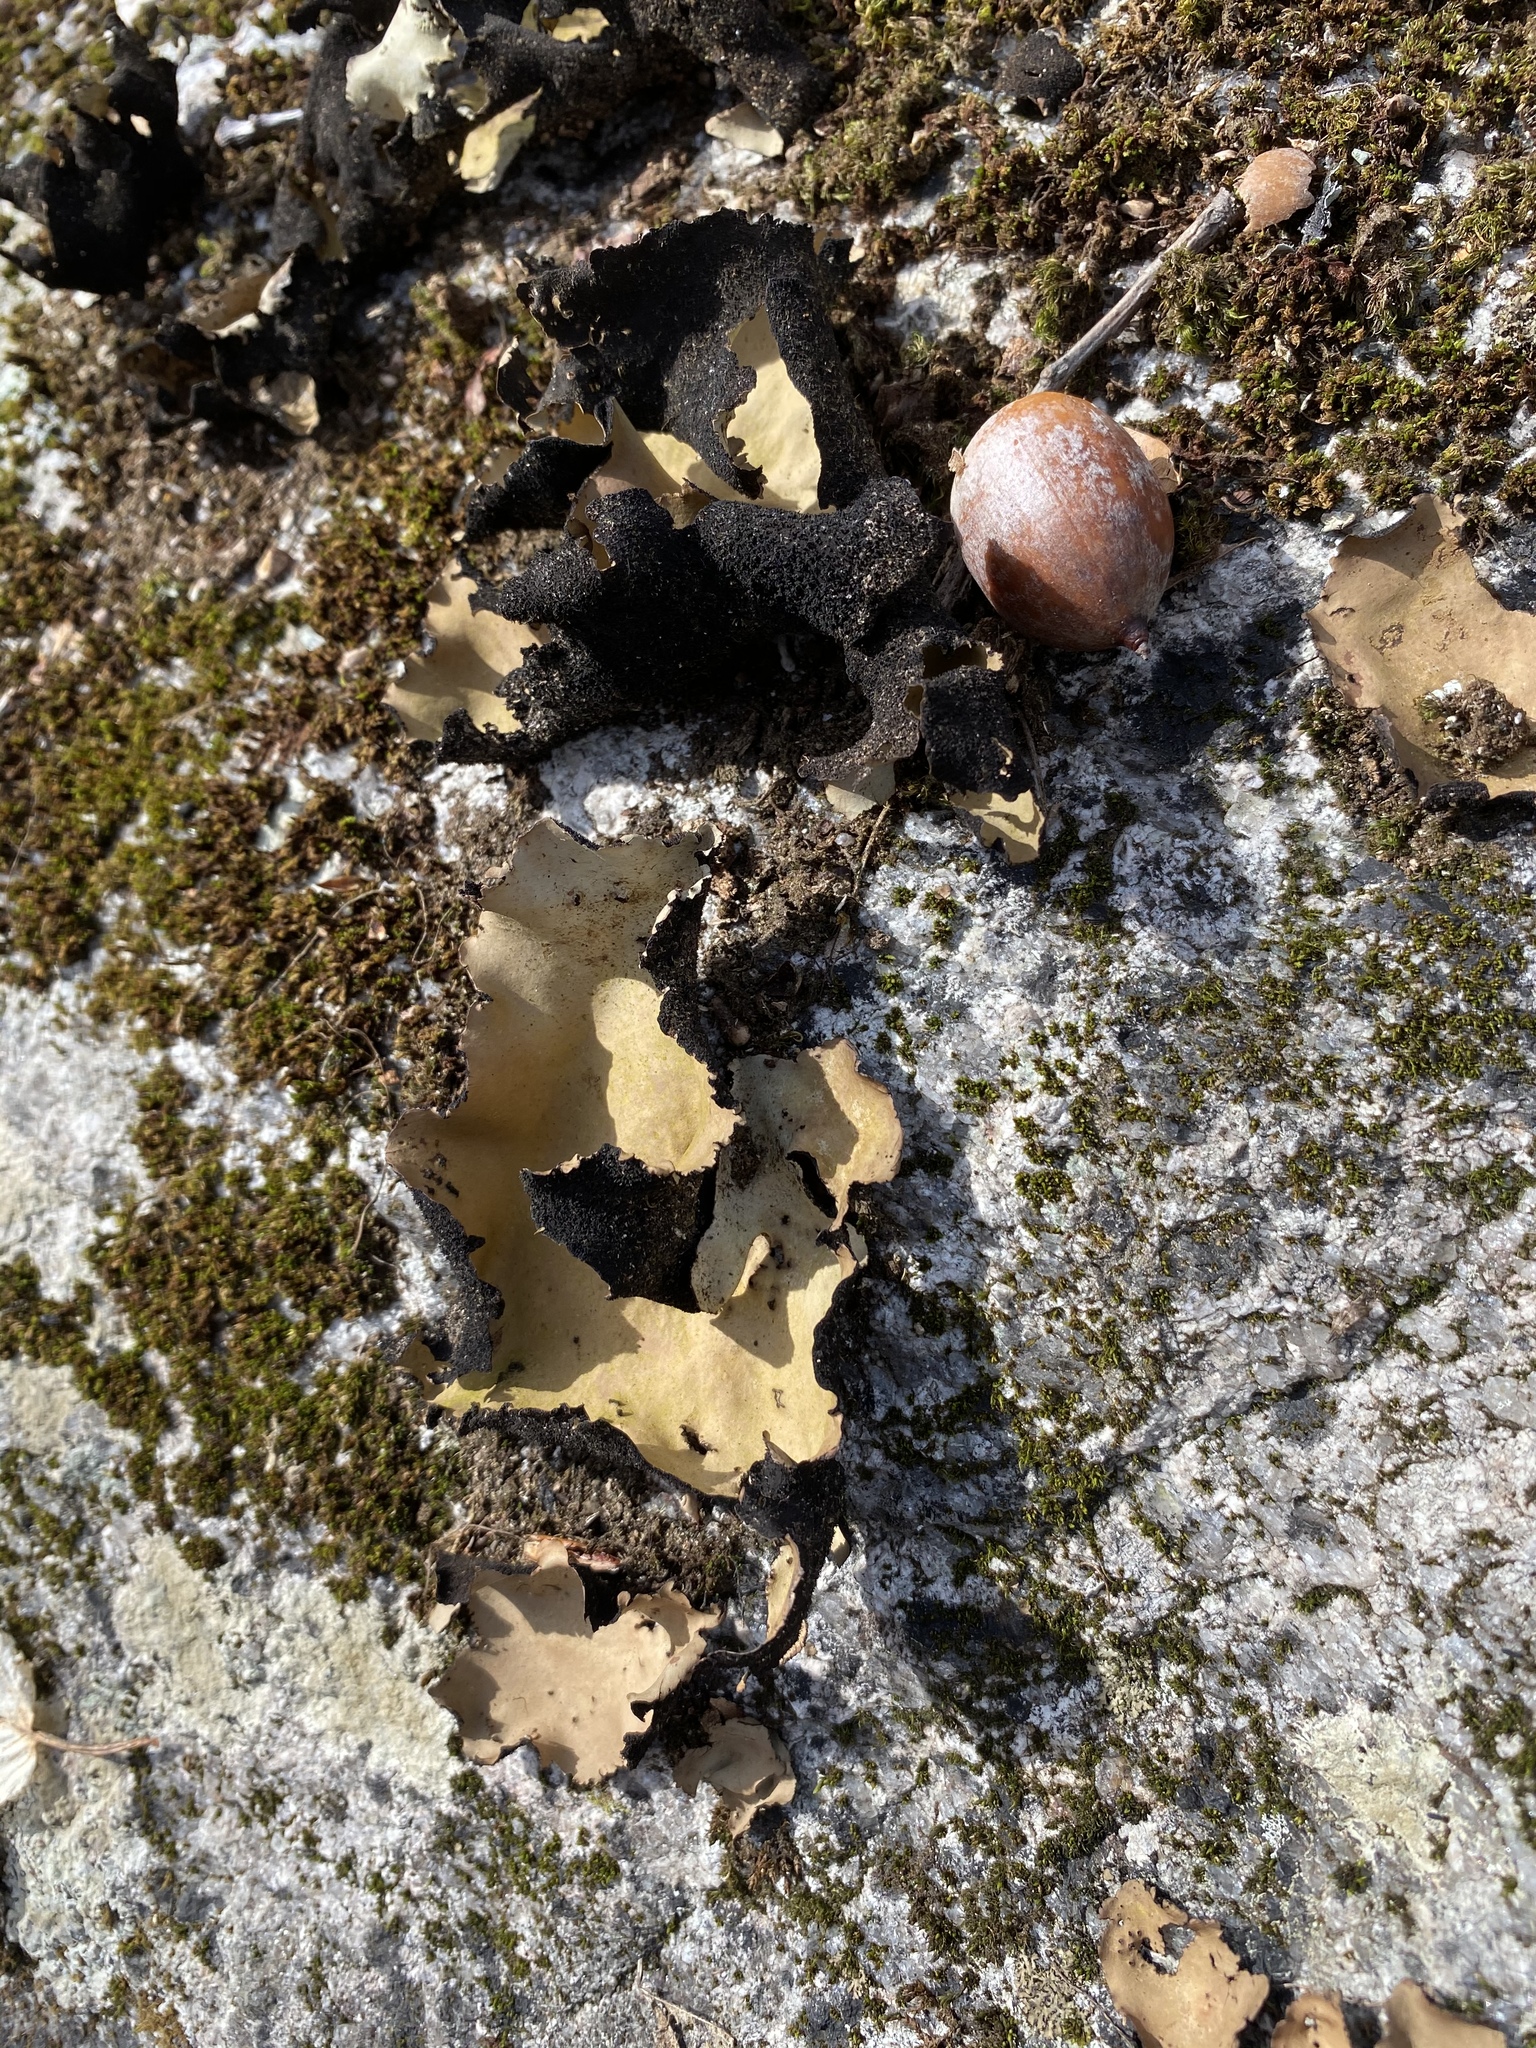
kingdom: Fungi
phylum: Ascomycota
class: Lecanoromycetes
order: Umbilicariales
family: Umbilicariaceae
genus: Umbilicaria
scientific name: Umbilicaria mammulata
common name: Smooth rock tripe
